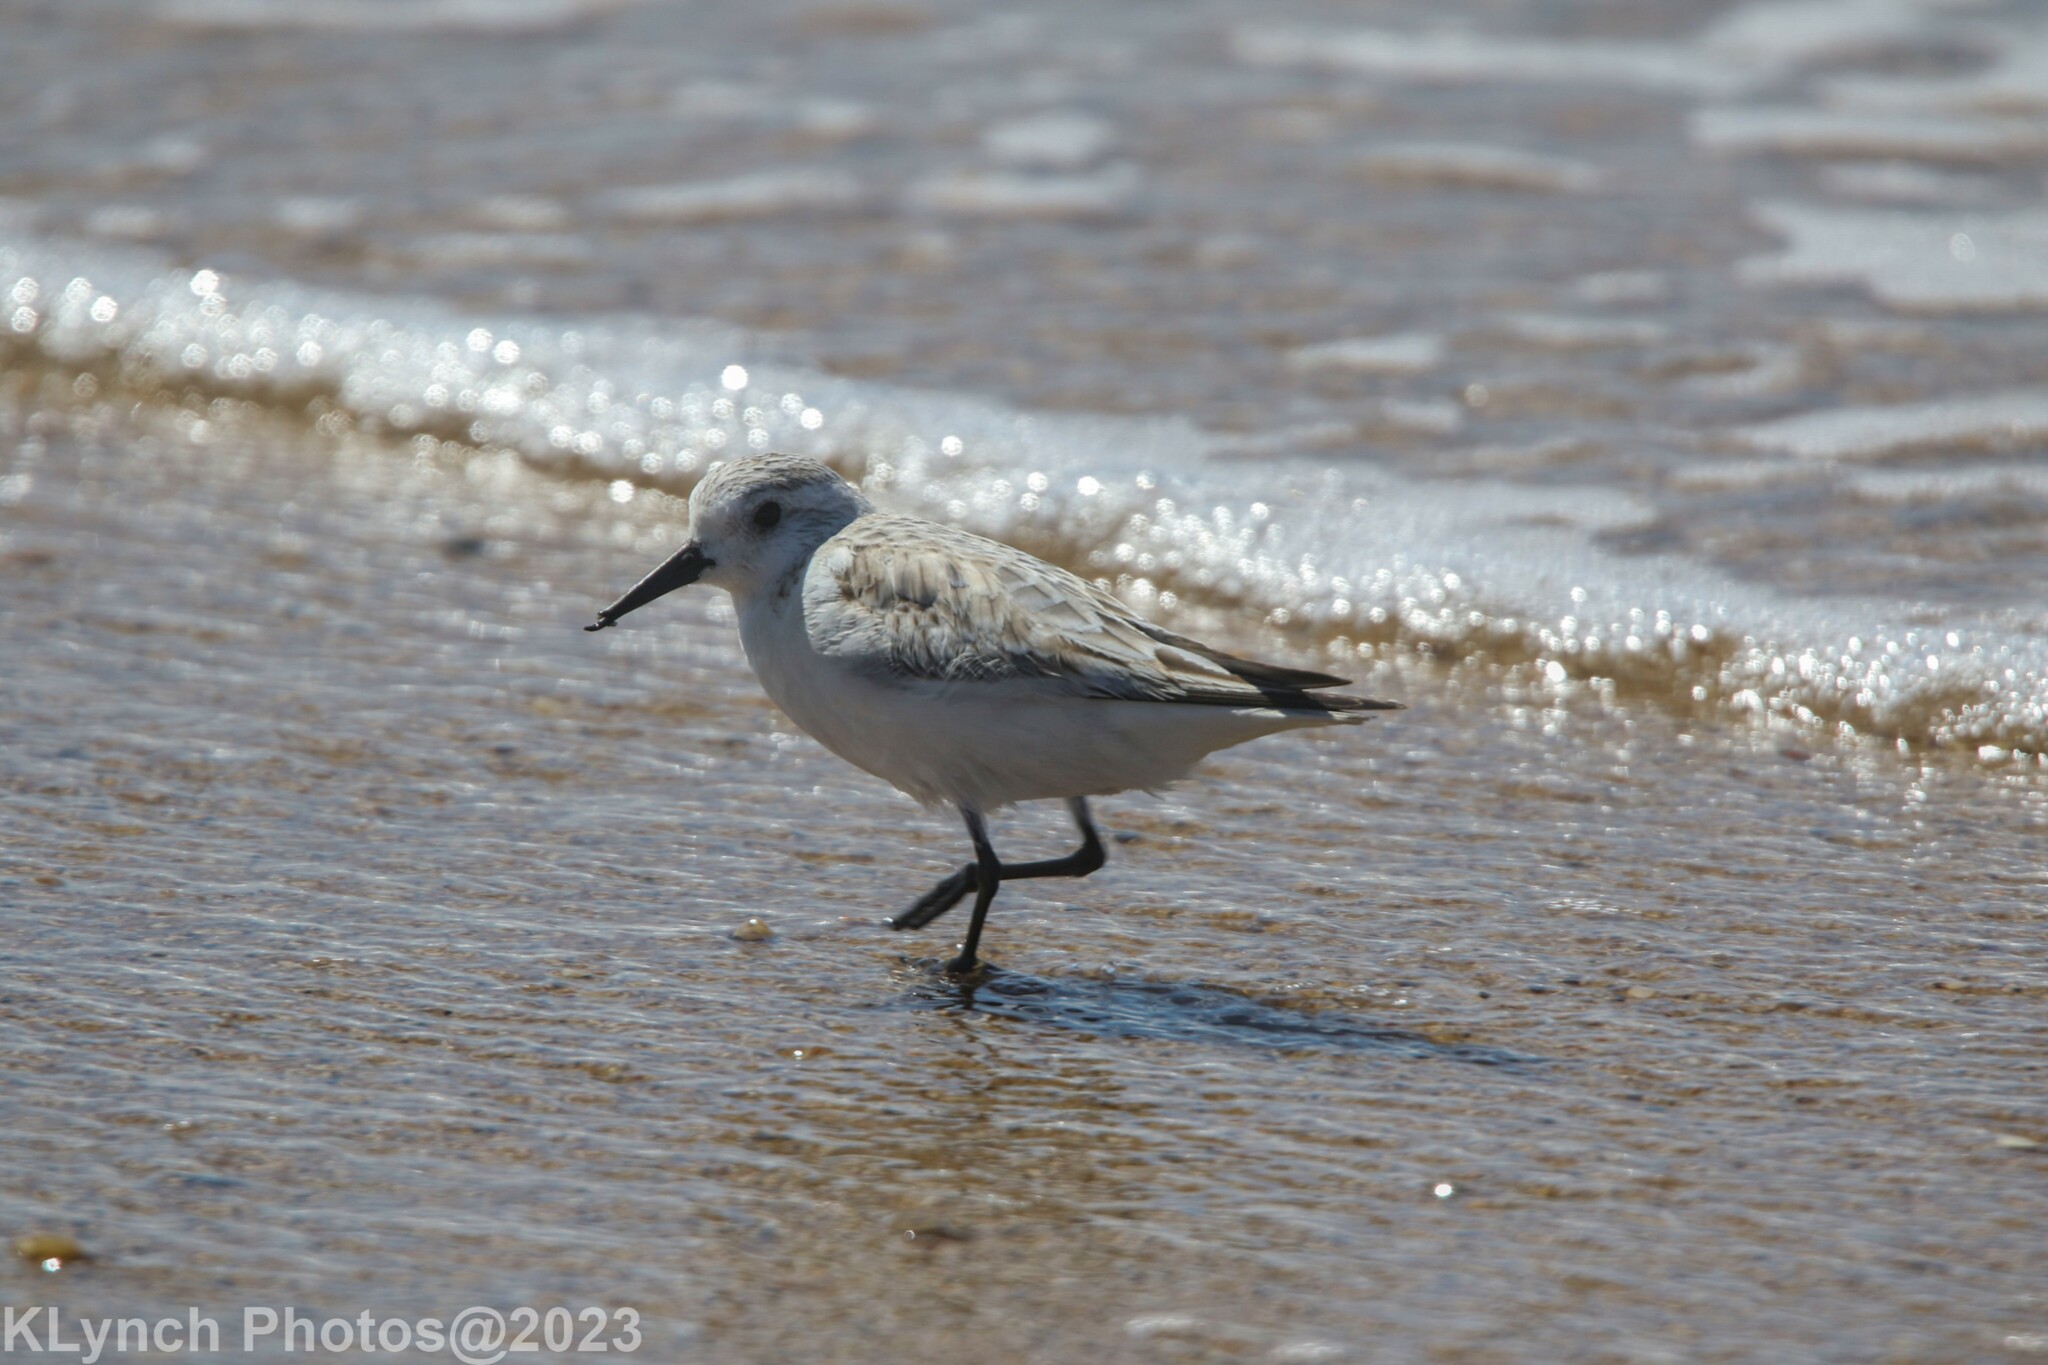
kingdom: Animalia
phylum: Chordata
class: Aves
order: Charadriiformes
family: Scolopacidae
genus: Calidris
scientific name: Calidris alba
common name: Sanderling
